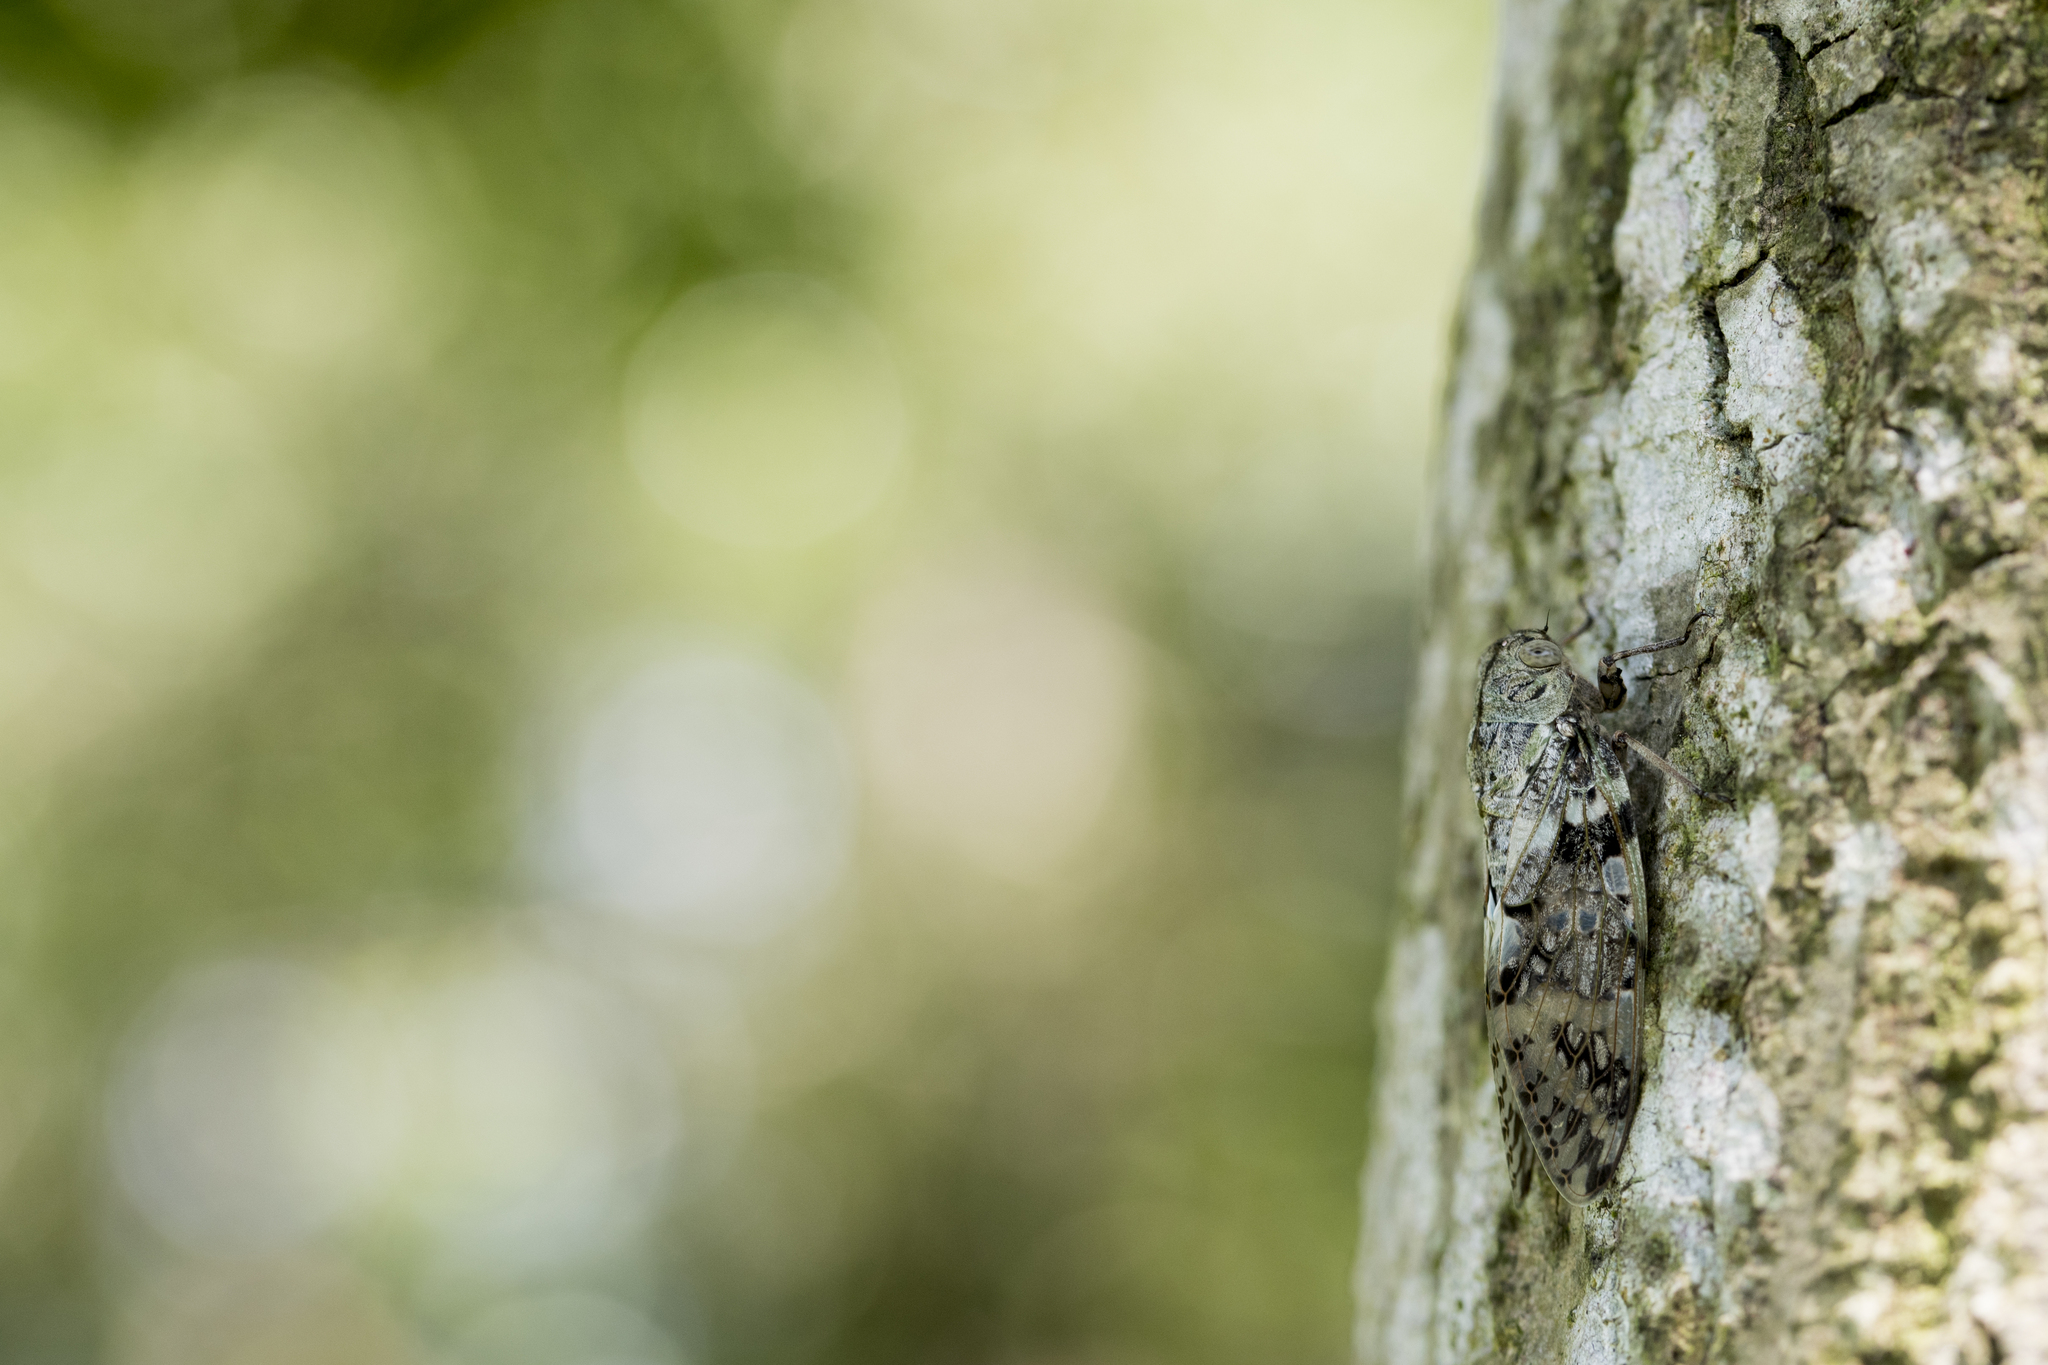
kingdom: Animalia
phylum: Arthropoda
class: Insecta
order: Hemiptera
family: Cicadidae
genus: Platypleura
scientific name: Platypleura takasagona
